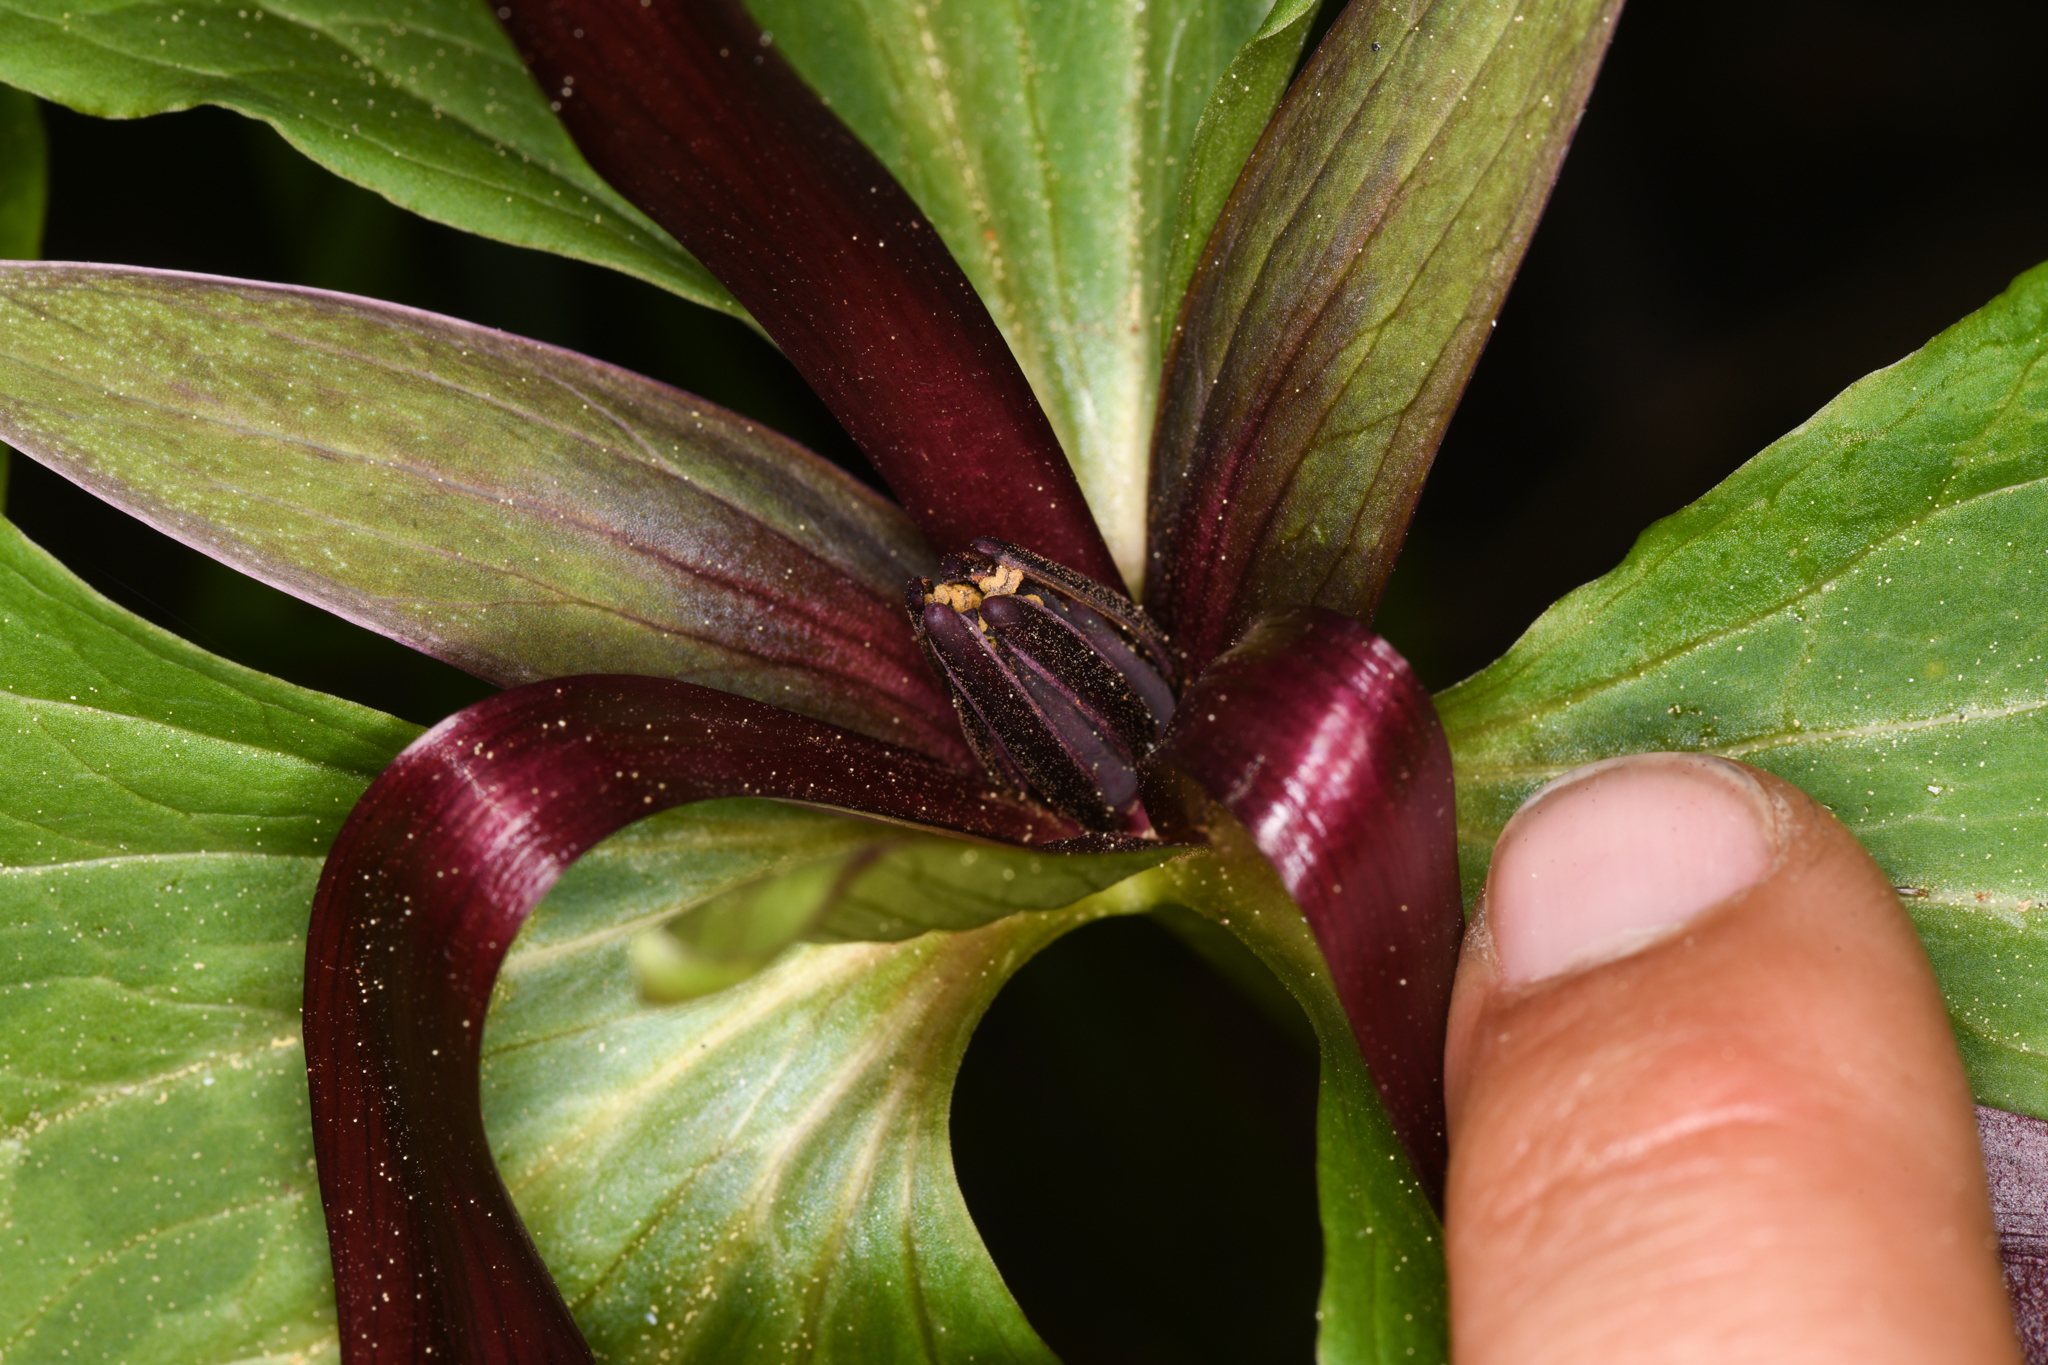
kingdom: Plantae
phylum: Tracheophyta
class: Liliopsida
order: Liliales
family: Melanthiaceae
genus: Trillium
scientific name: Trillium angustipetalum
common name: Narrow-petaled trillium
